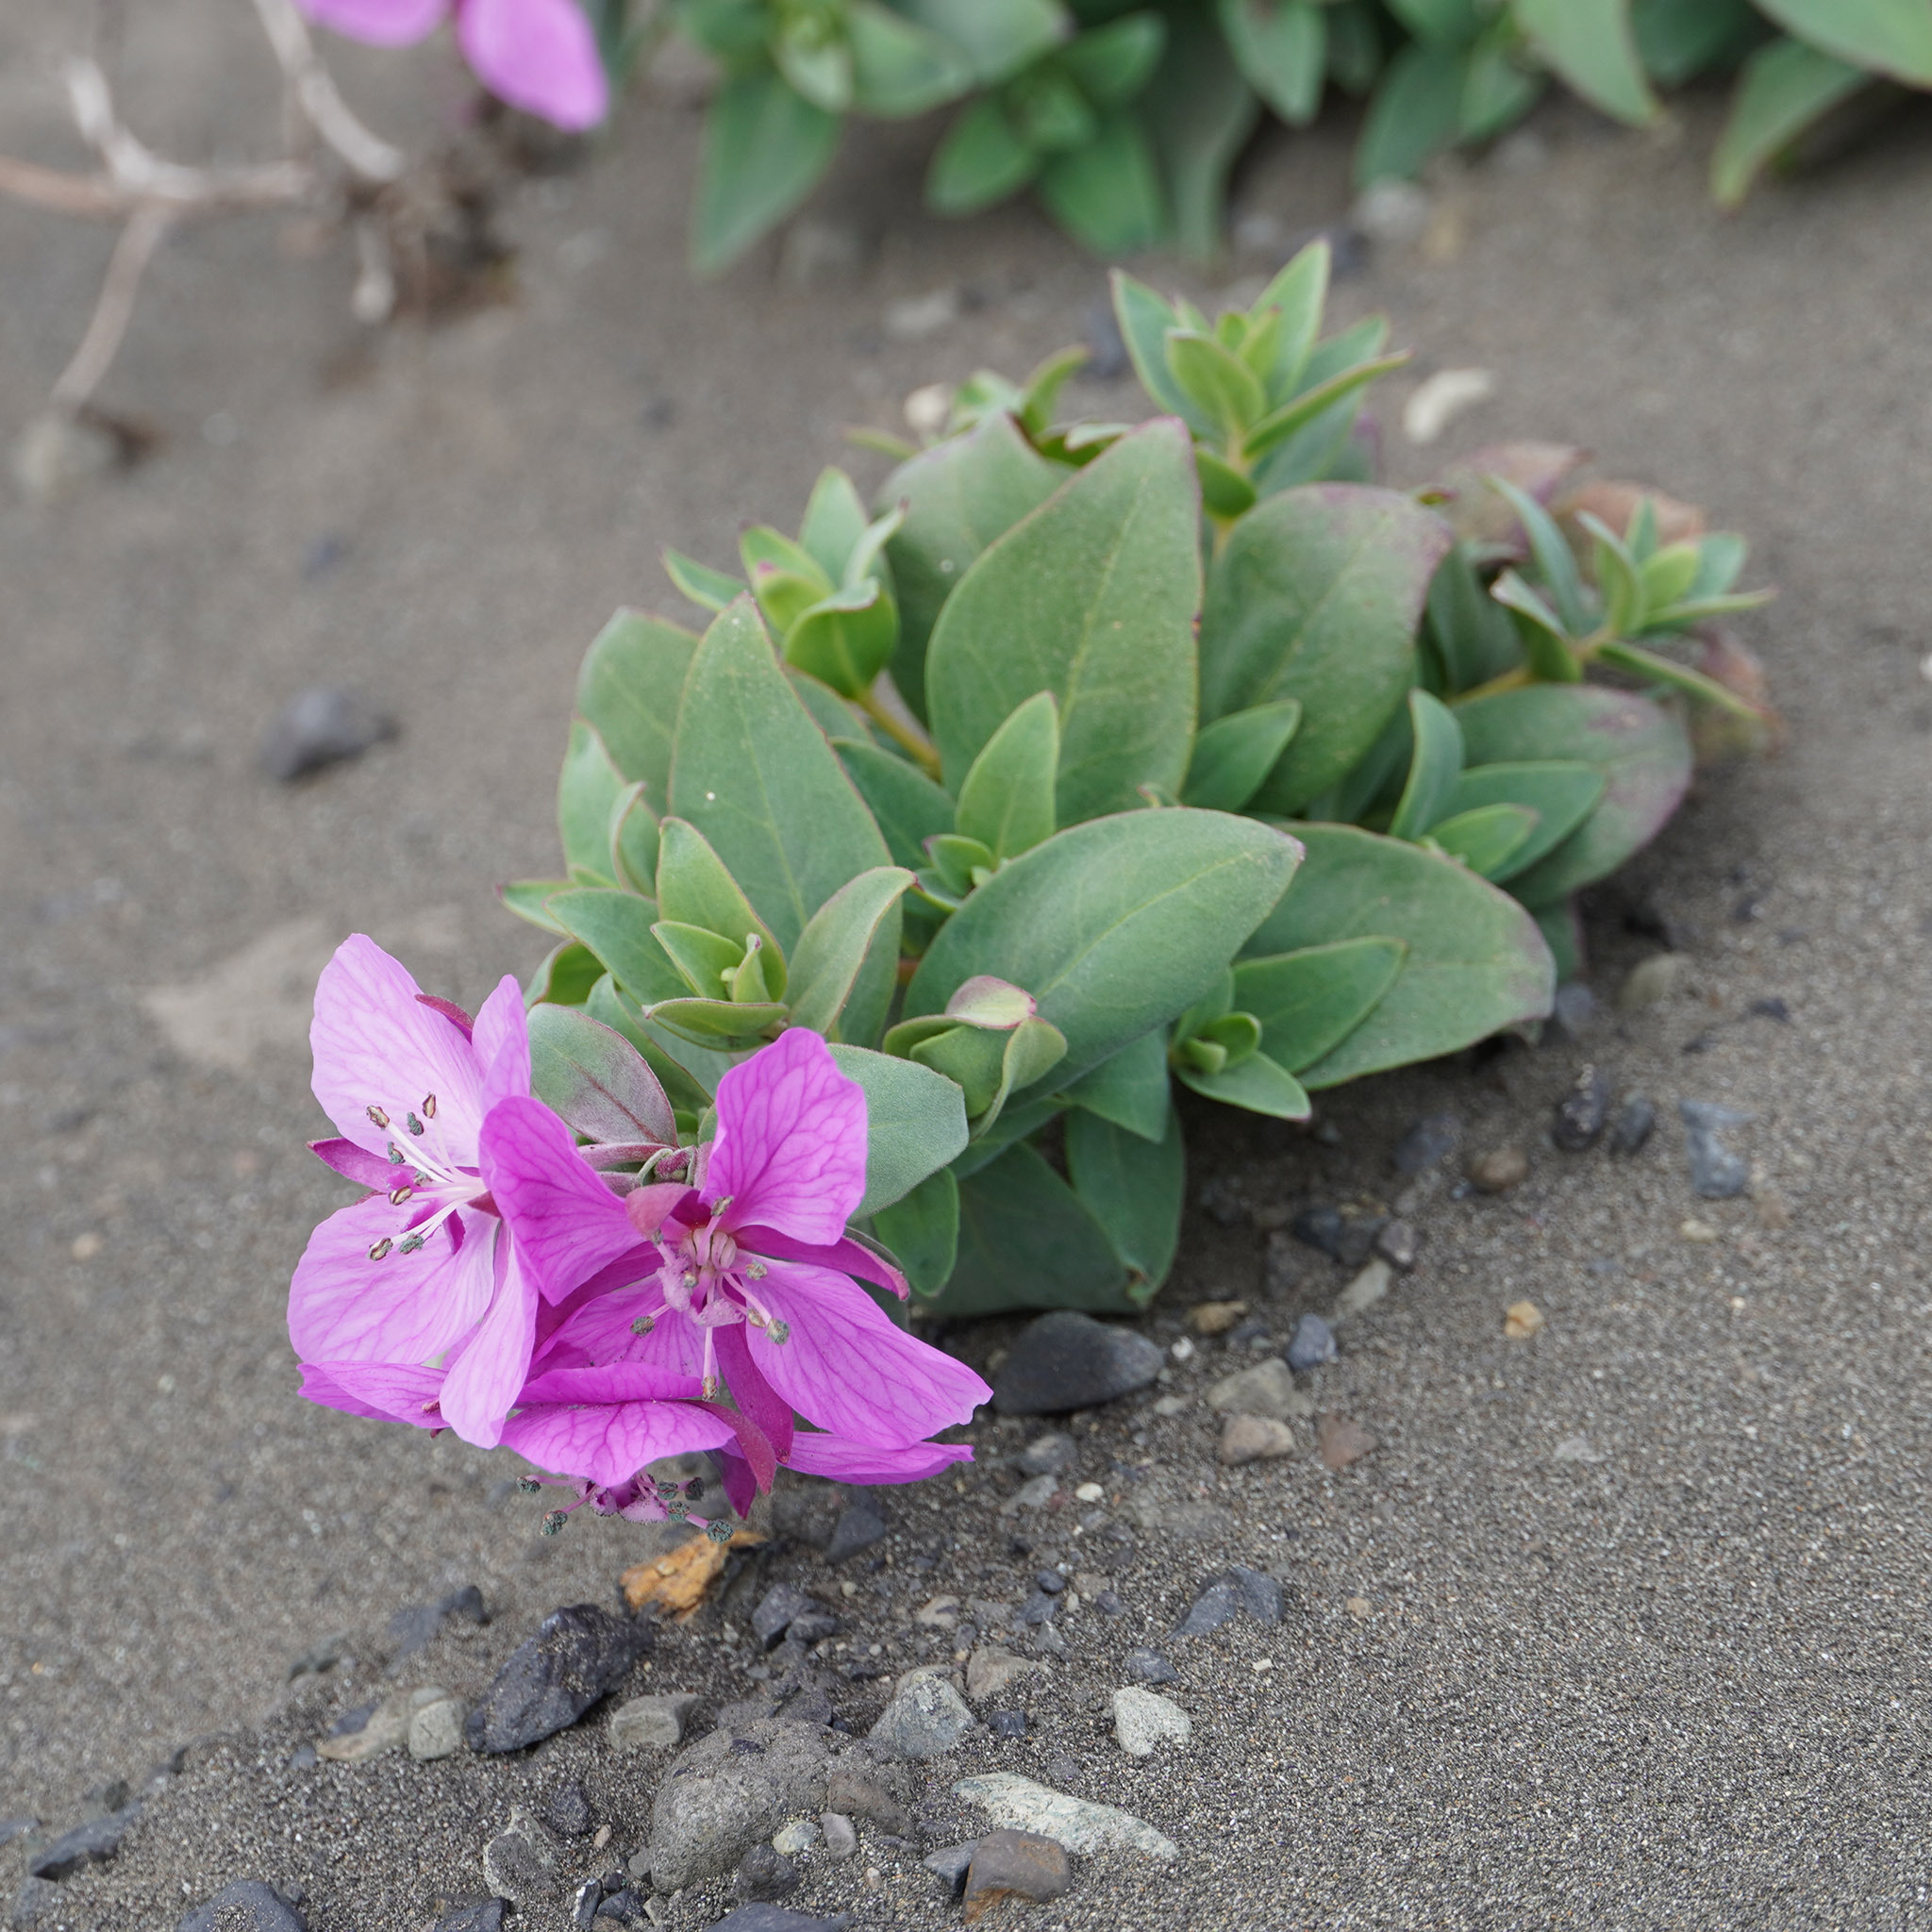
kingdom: Plantae
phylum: Tracheophyta
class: Magnoliopsida
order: Myrtales
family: Onagraceae
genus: Chamaenerion
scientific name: Chamaenerion latifolium
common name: Dwarf fireweed
